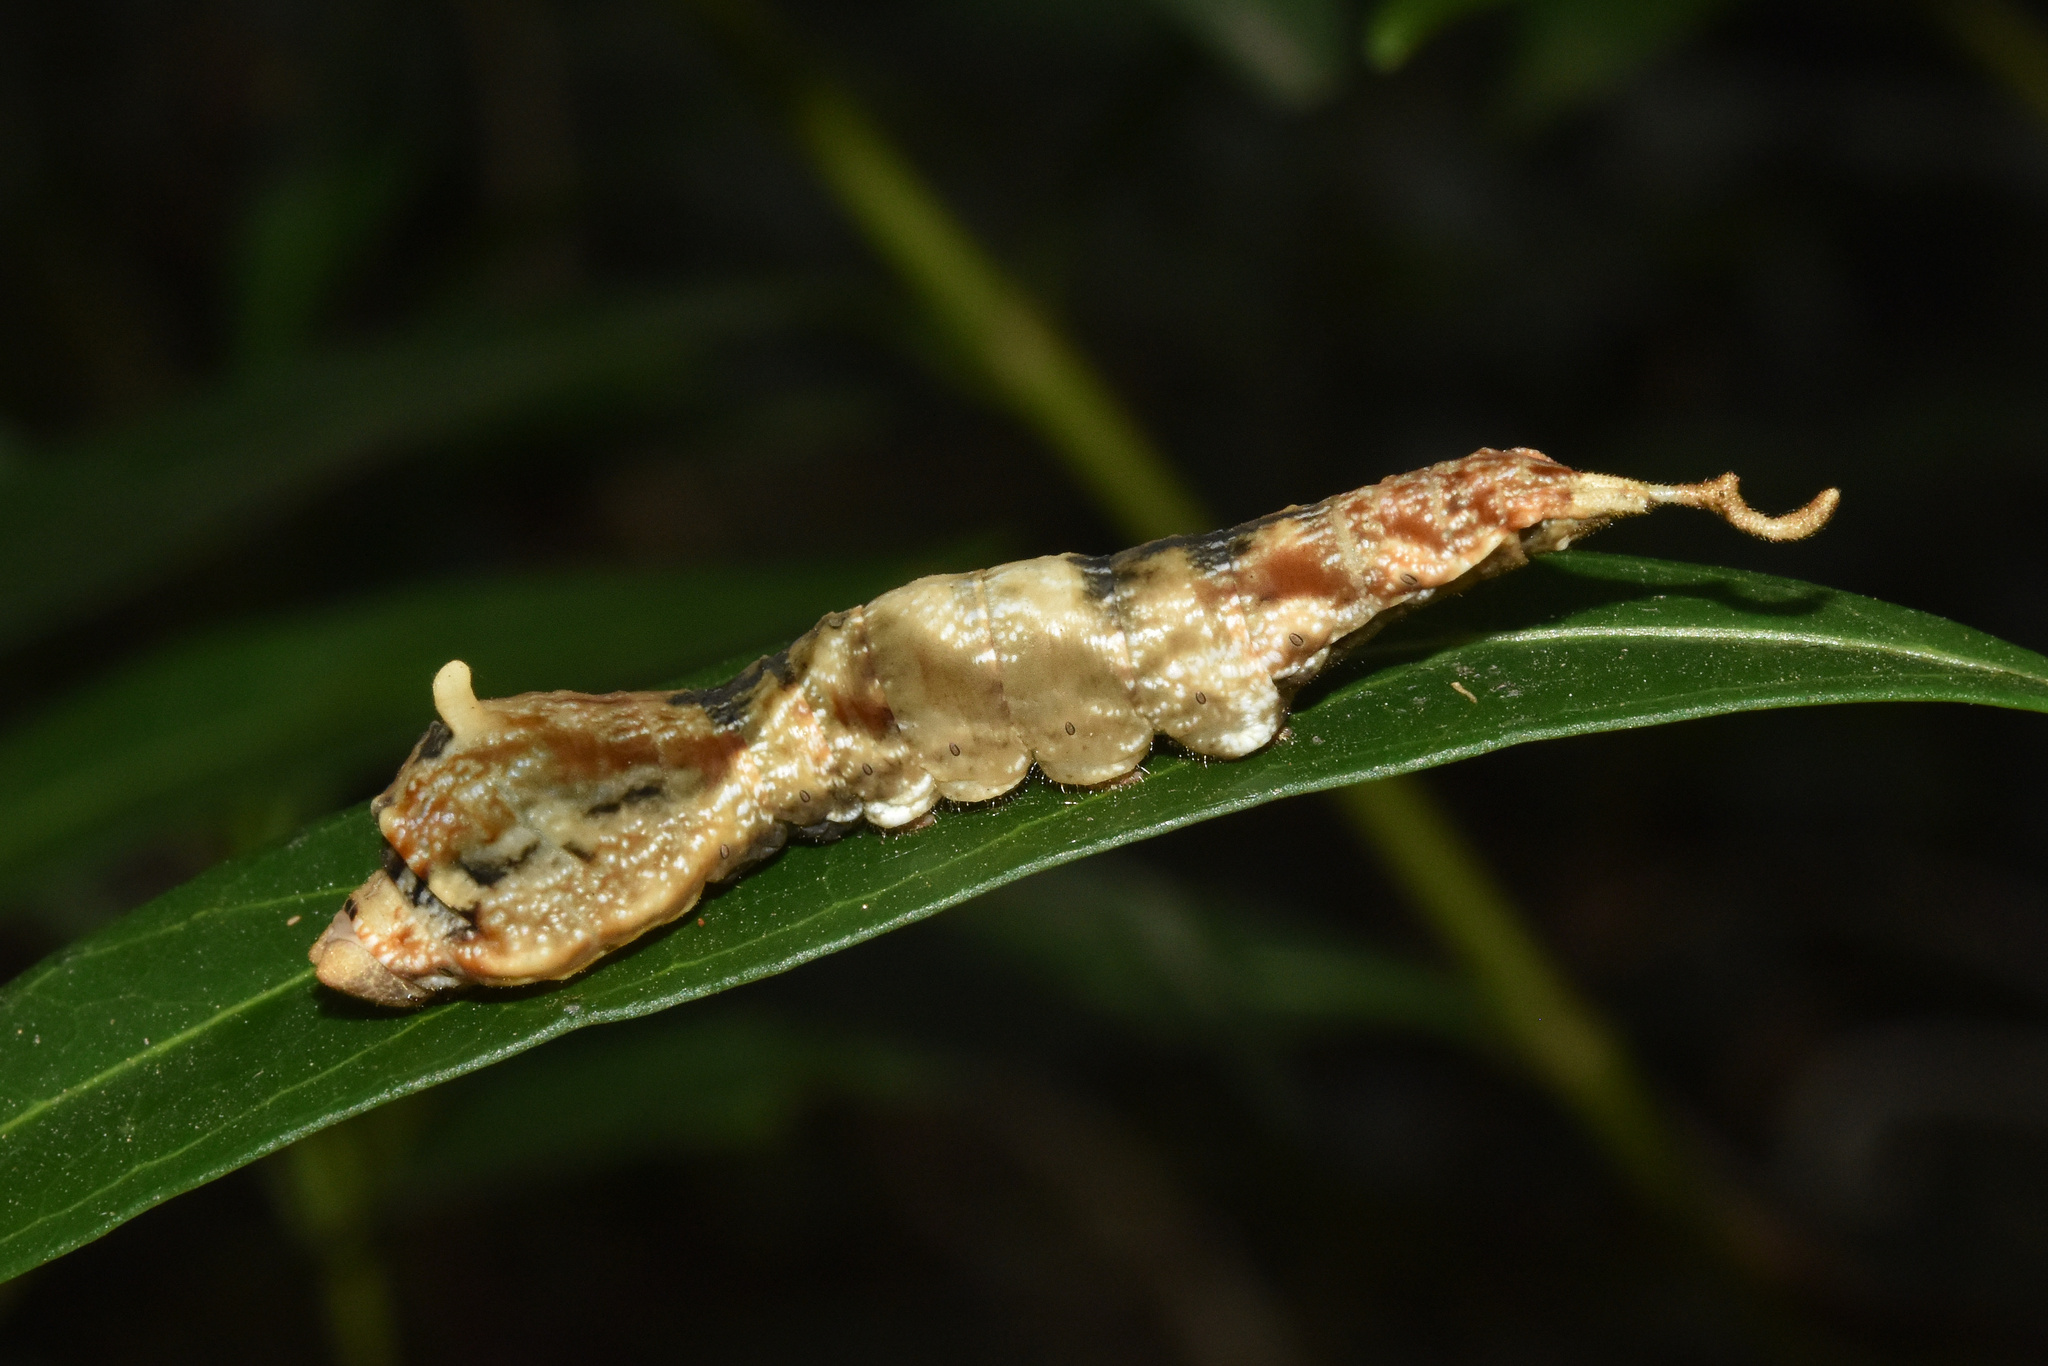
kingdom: Animalia
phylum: Arthropoda
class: Insecta
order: Lepidoptera
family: Drepanidae
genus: Negera
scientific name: Negera natalensis
